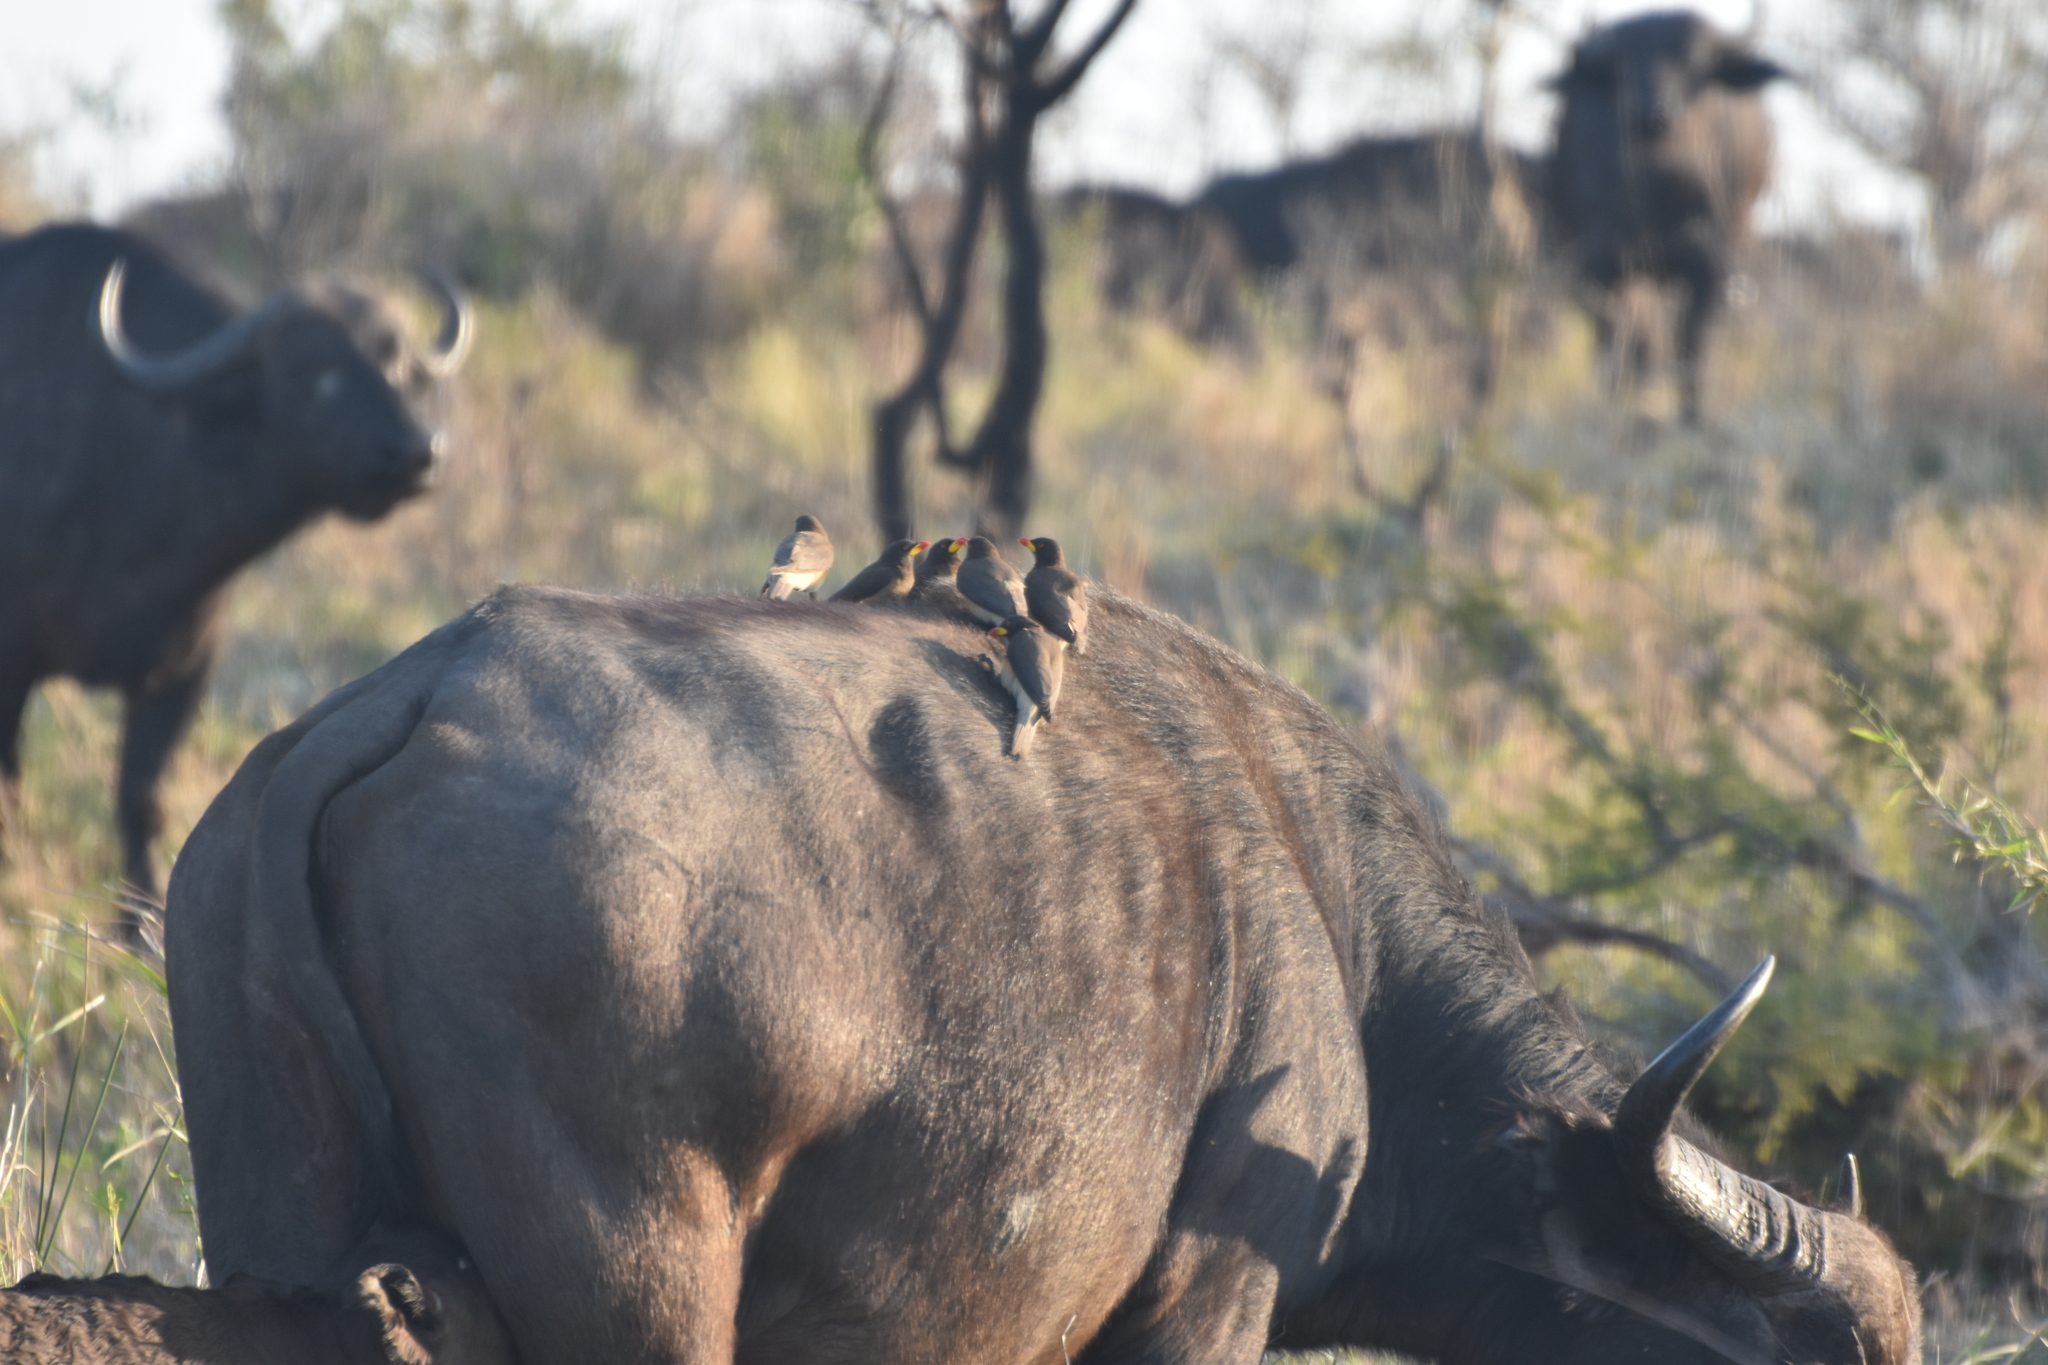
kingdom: Animalia
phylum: Chordata
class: Aves
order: Passeriformes
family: Buphagidae
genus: Buphagus
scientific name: Buphagus africanus
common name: Yellow-billed oxpecker
